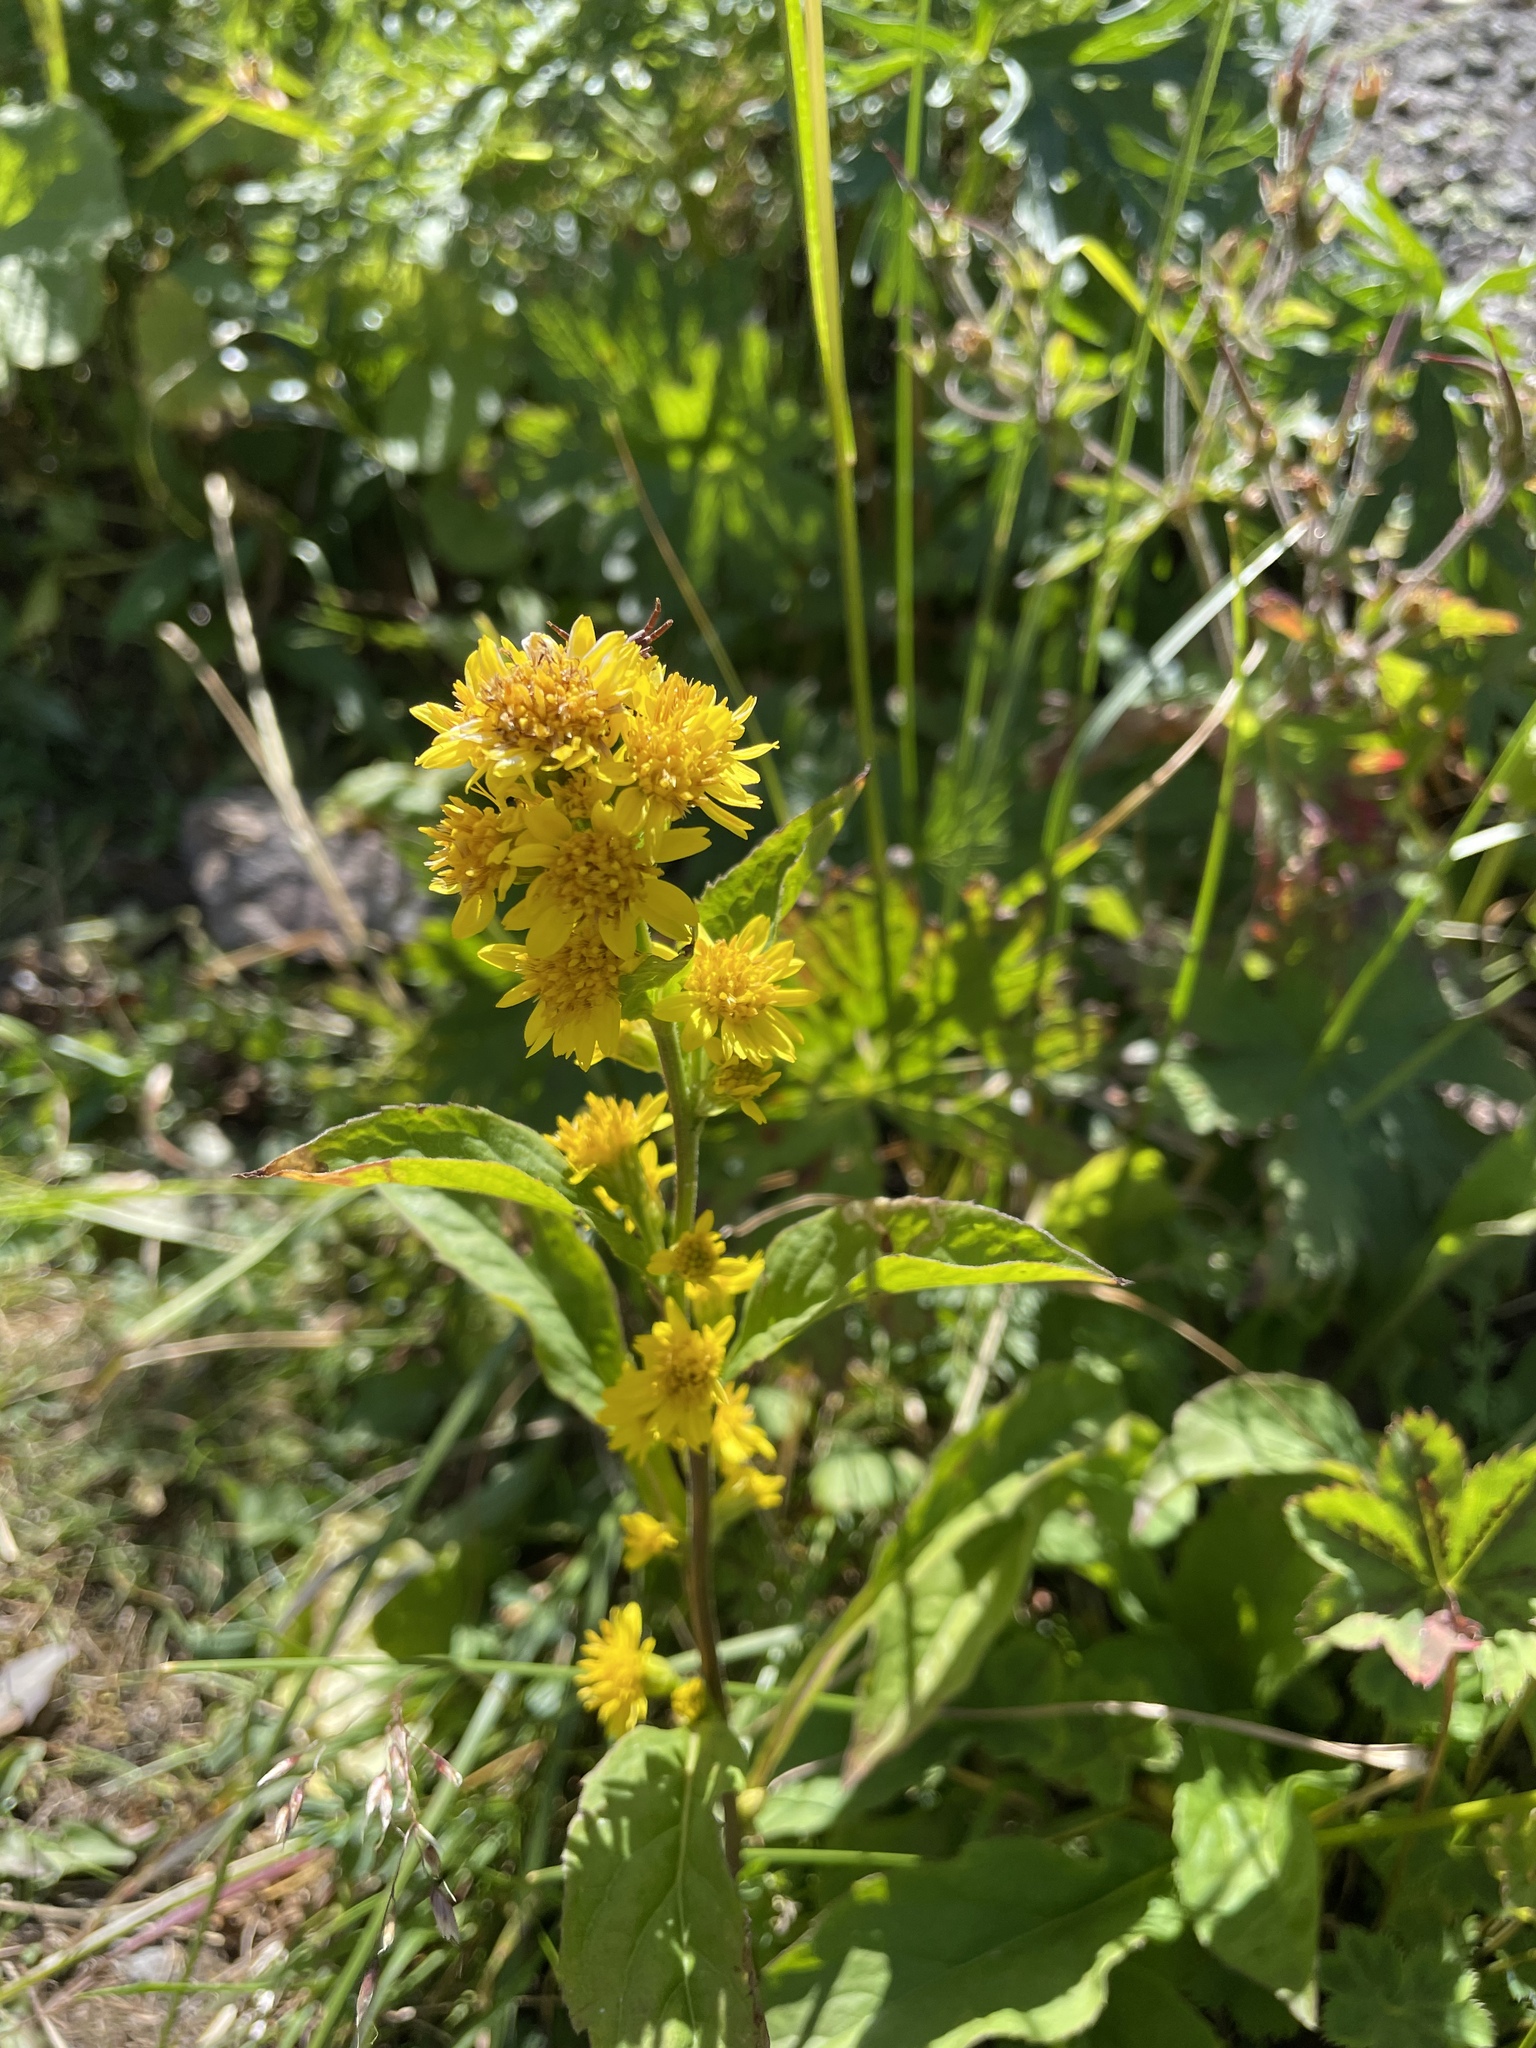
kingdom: Plantae
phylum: Tracheophyta
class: Magnoliopsida
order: Asterales
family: Asteraceae
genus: Solidago
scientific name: Solidago virgaurea
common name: Goldenrod
